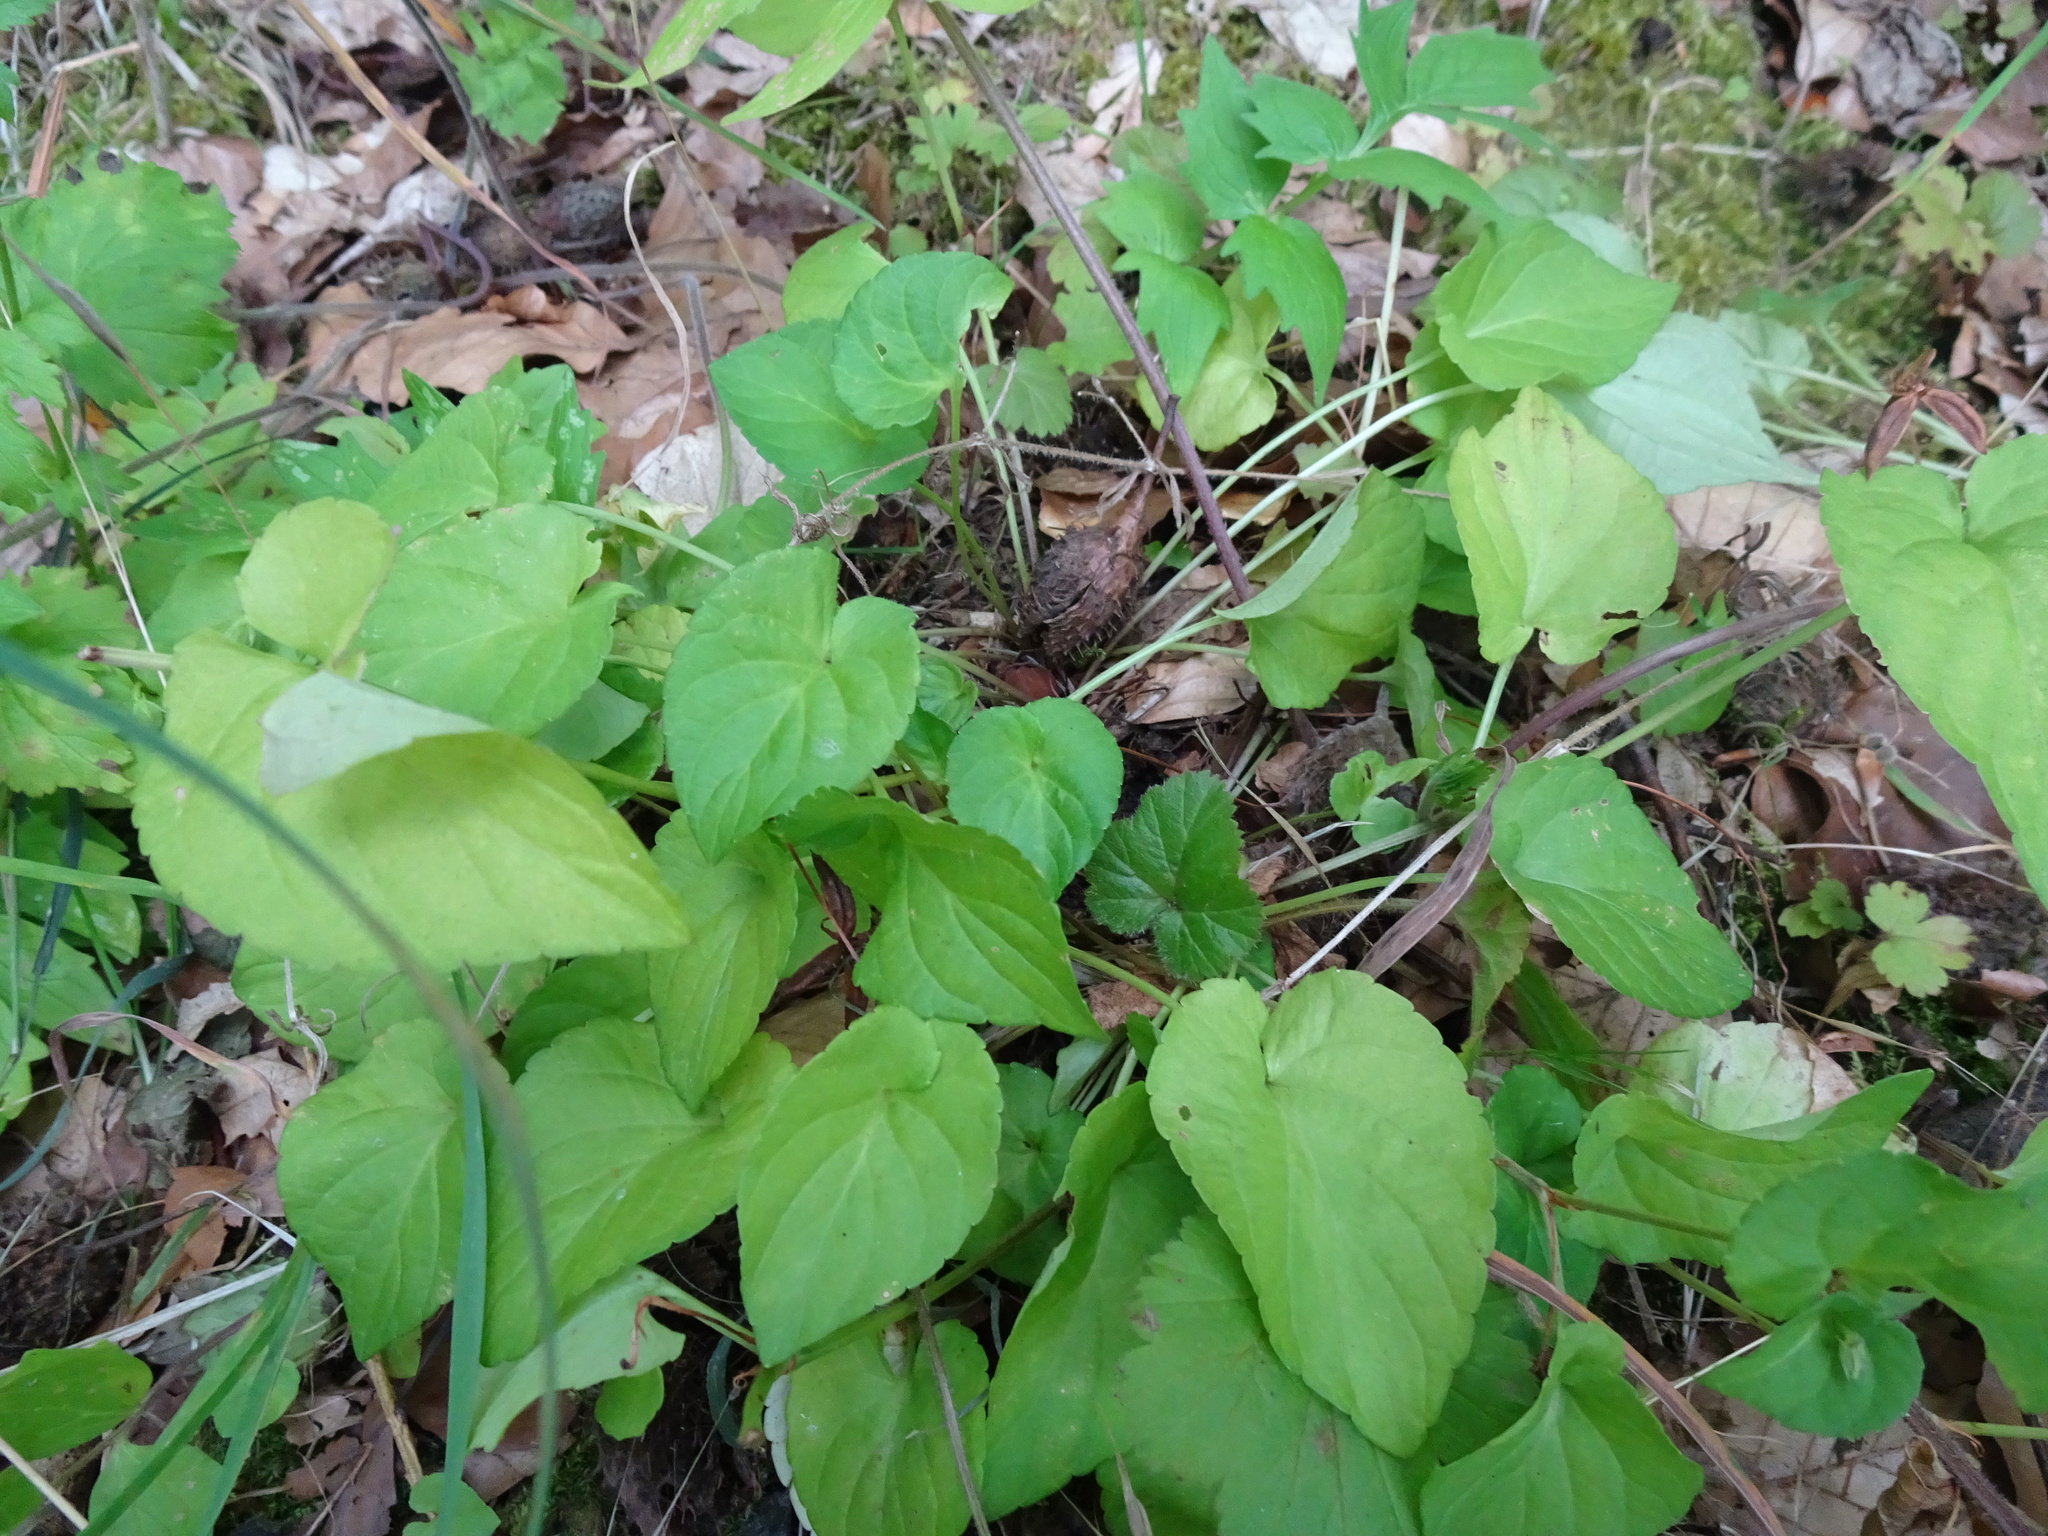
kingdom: Plantae
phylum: Tracheophyta
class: Magnoliopsida
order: Malpighiales
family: Violaceae
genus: Viola
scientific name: Viola reichenbachiana
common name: Early dog-violet
